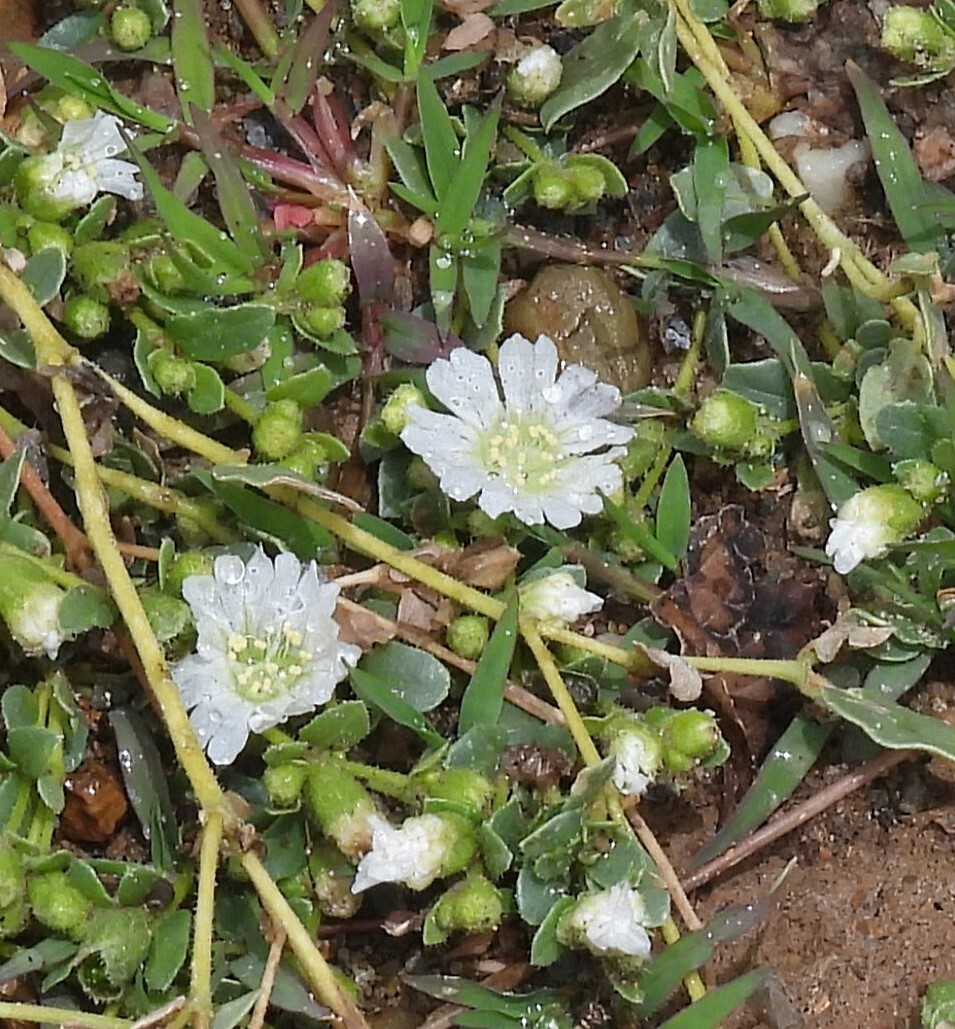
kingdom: Plantae
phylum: Tracheophyta
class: Magnoliopsida
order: Caryophyllales
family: Nyctaginaceae
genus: Allionia
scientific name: Allionia choisyi
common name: Trailing-four-o'clock
